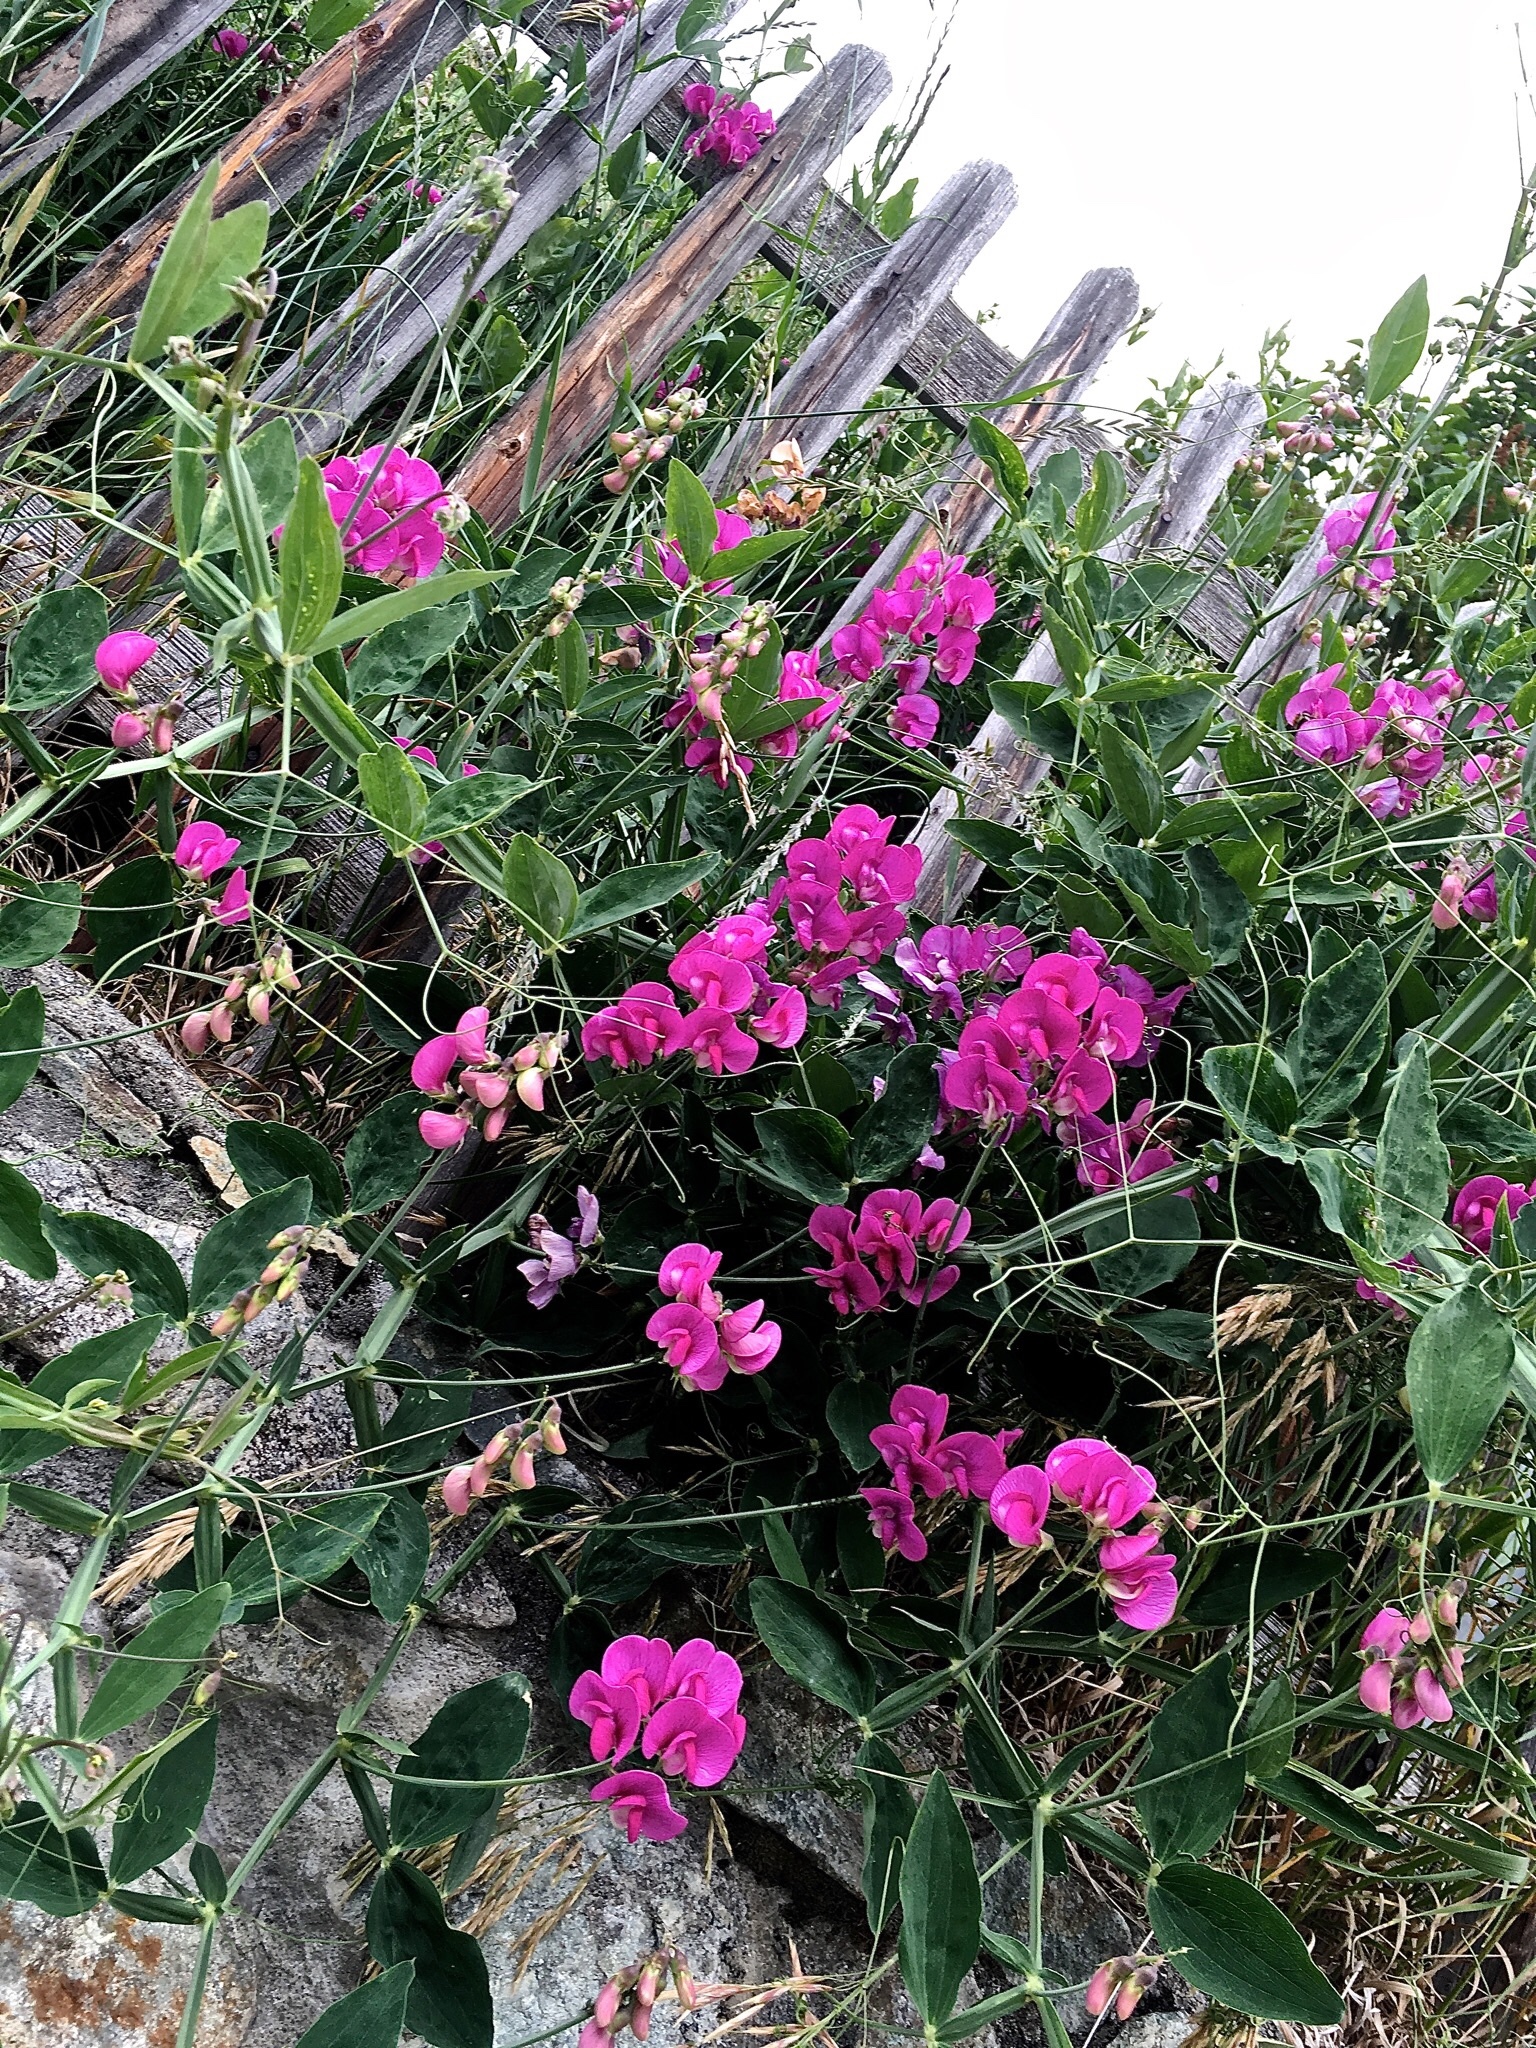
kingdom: Plantae
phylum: Tracheophyta
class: Magnoliopsida
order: Fabales
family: Fabaceae
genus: Lathyrus
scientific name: Lathyrus latifolius
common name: Perennial pea
